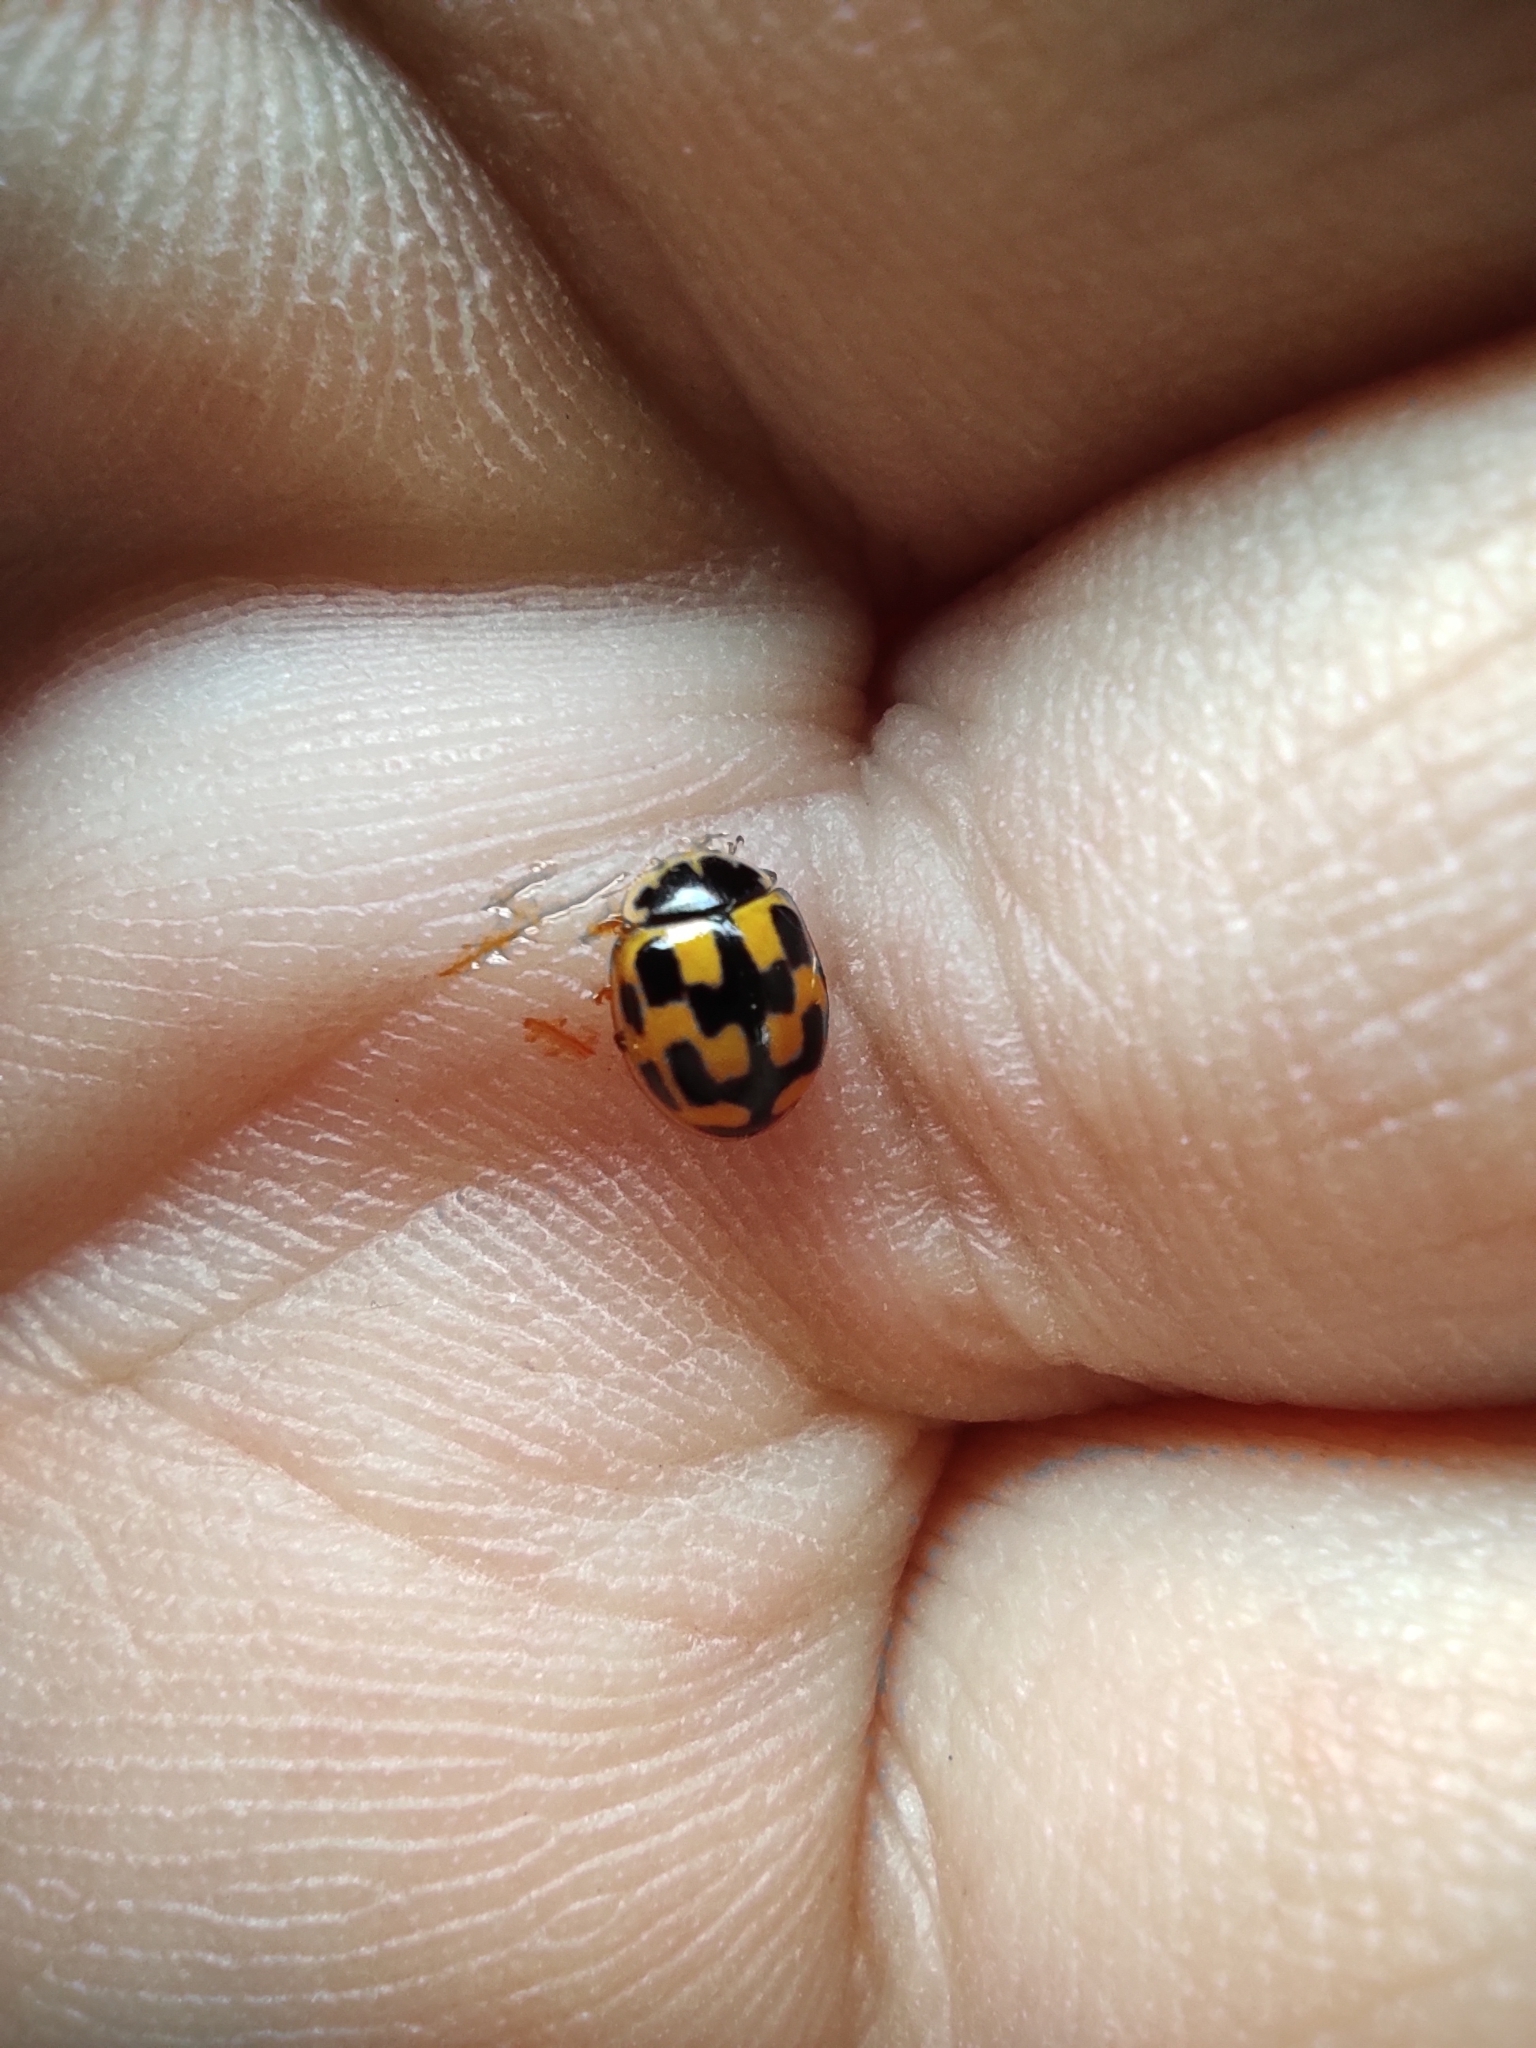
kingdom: Animalia
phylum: Arthropoda
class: Insecta
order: Coleoptera
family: Coccinellidae
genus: Propylaea
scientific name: Propylaea quatuordecimpunctata
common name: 14-spotted ladybird beetle
